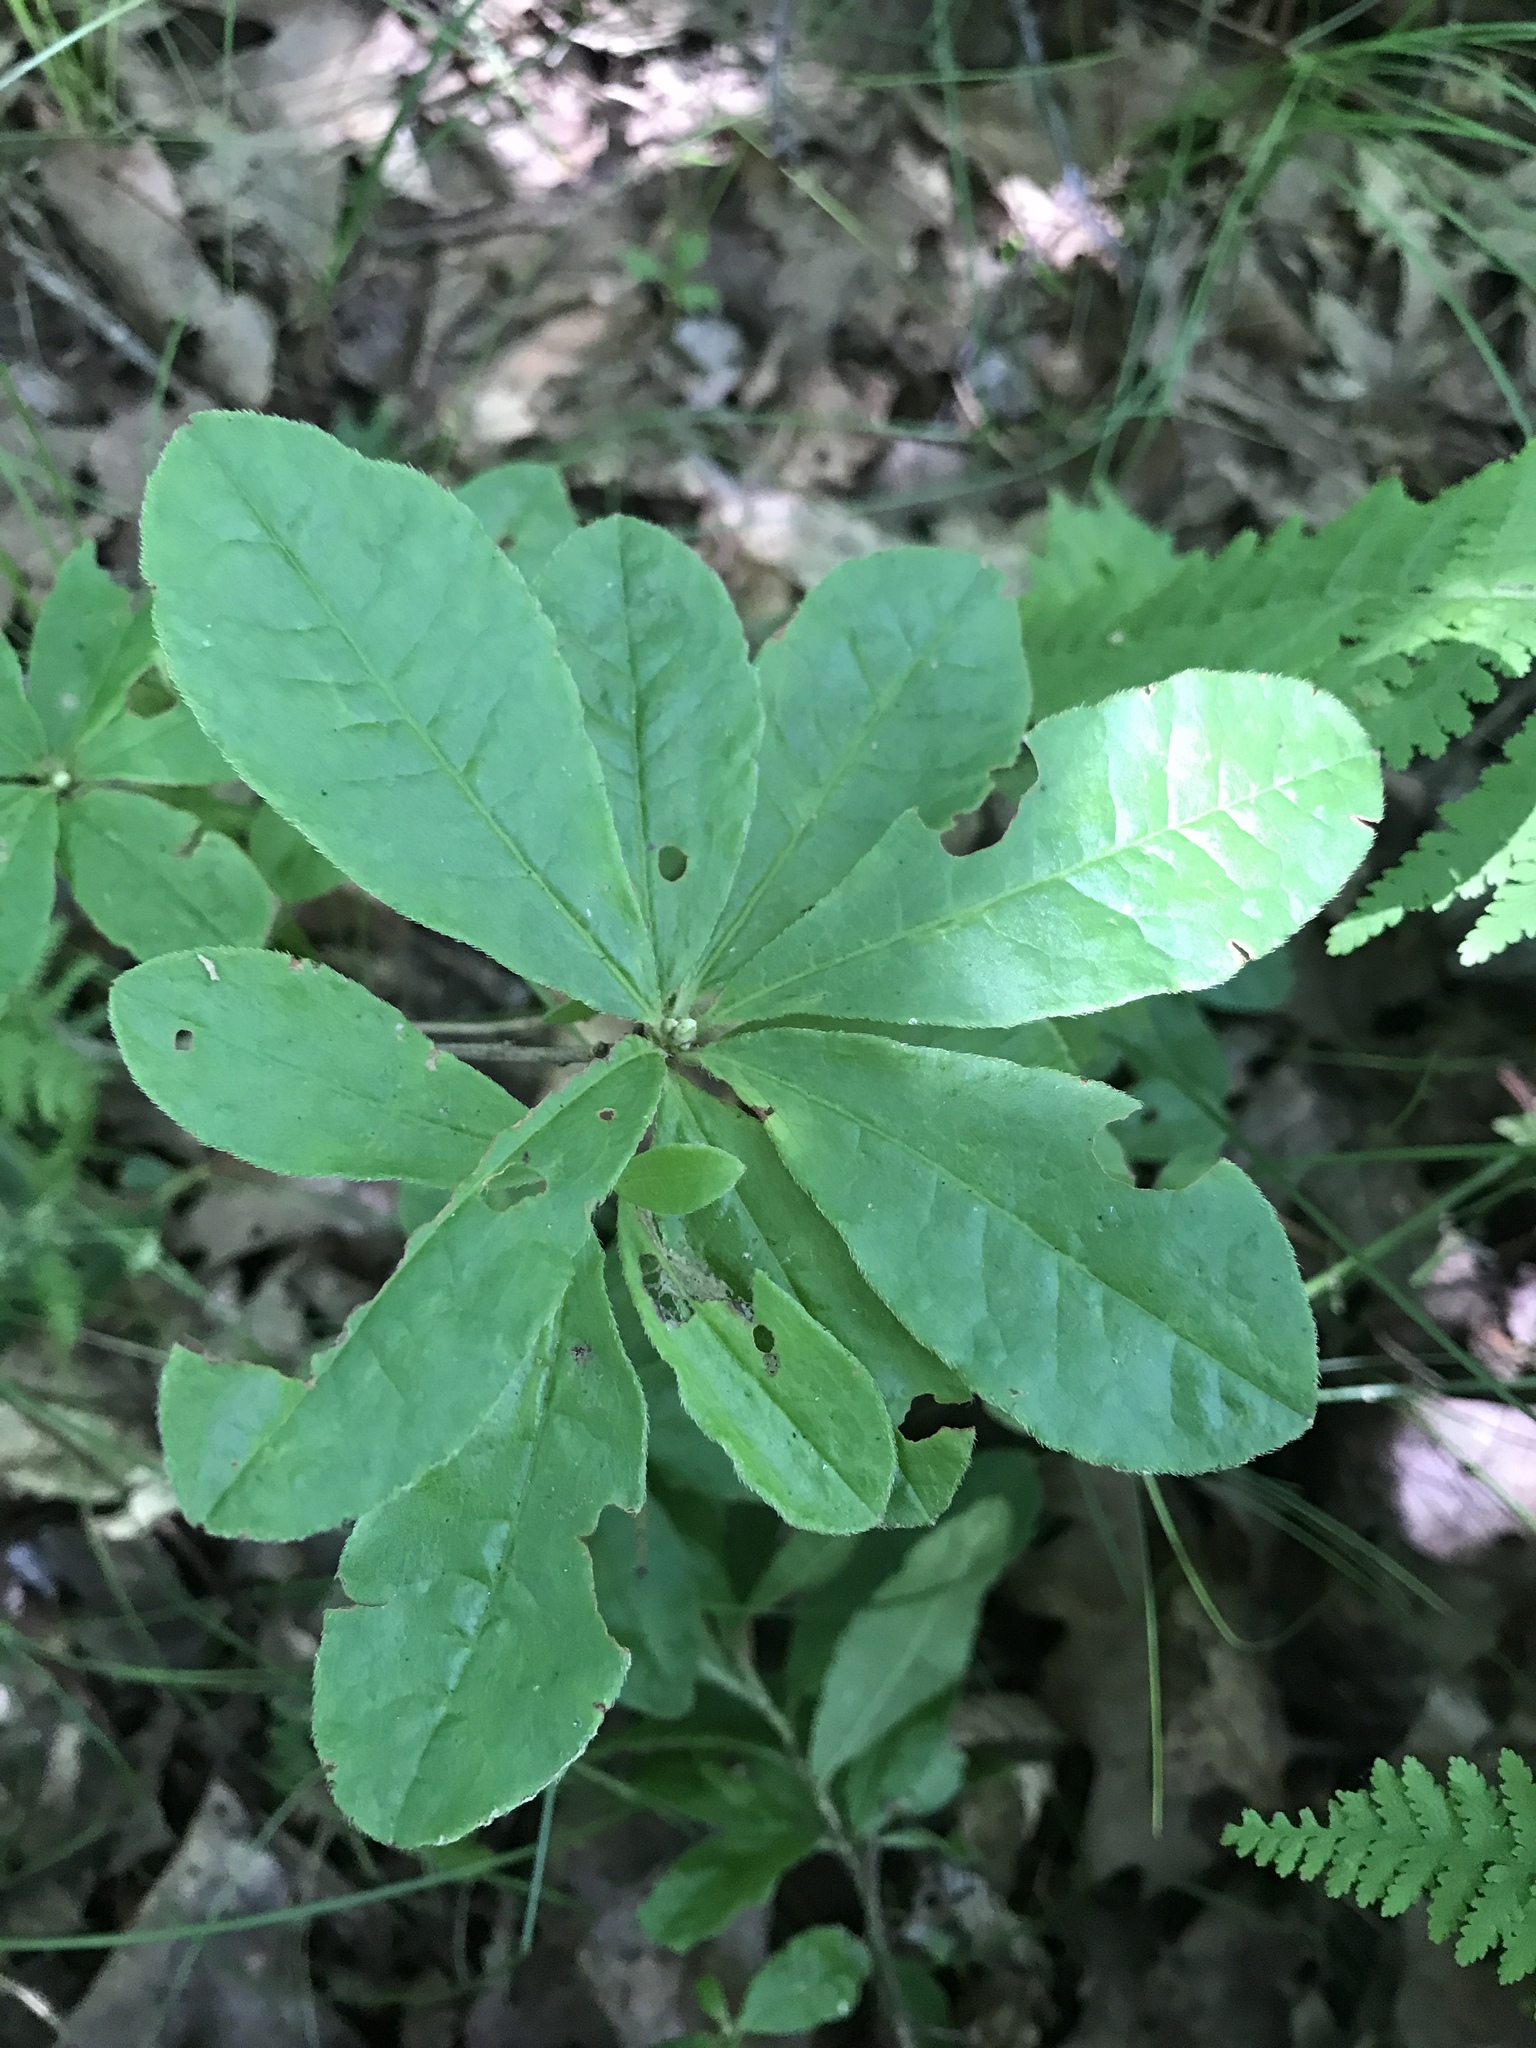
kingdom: Plantae
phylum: Tracheophyta
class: Magnoliopsida
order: Ericales
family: Ericaceae
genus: Rhododendron
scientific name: Rhododendron calendulaceum
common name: Flame azalea
